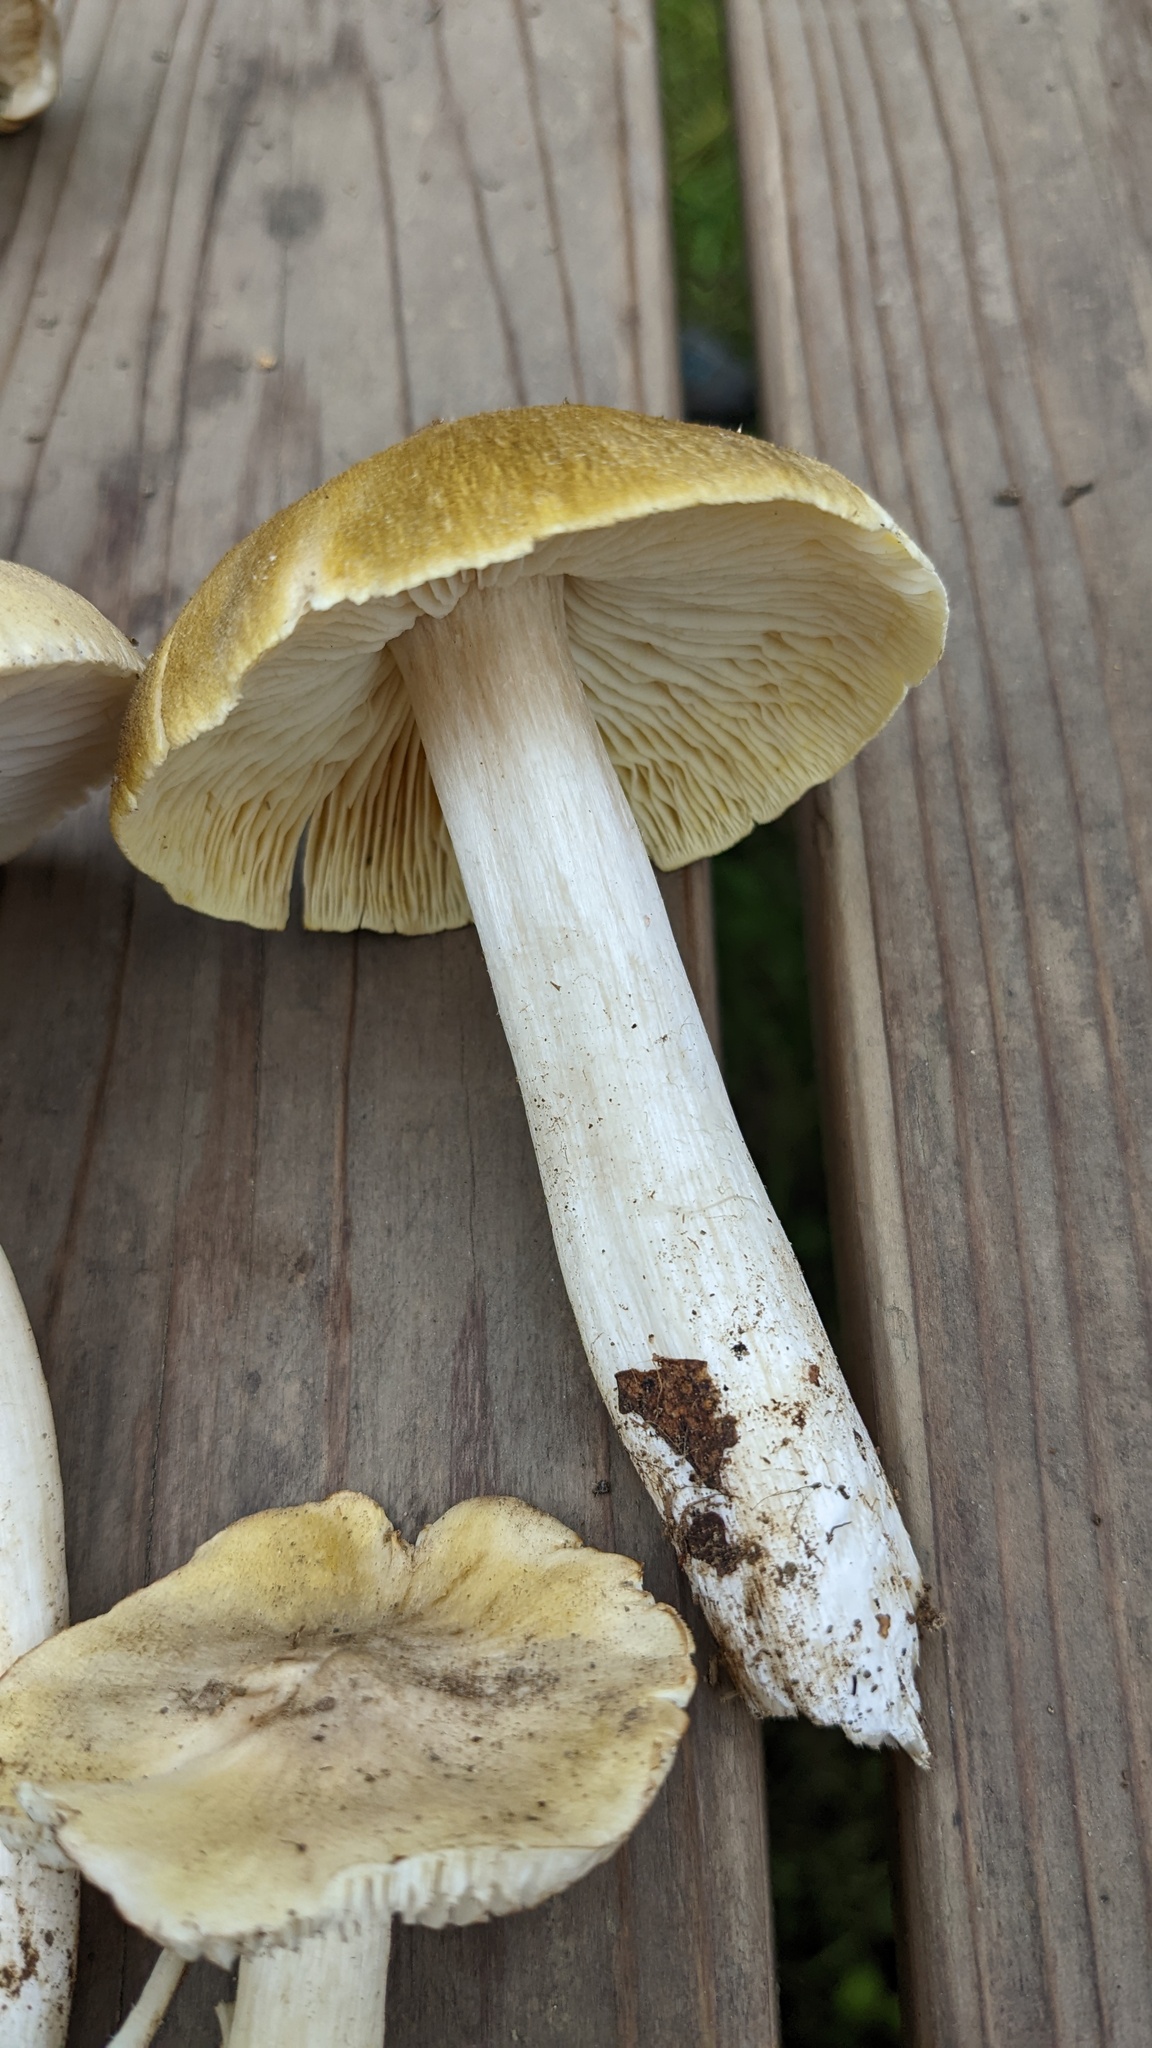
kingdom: Fungi
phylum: Basidiomycota
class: Agaricomycetes
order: Agaricales
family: Tricholomataceae
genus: Tricholoma
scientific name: Tricholoma muscarium
